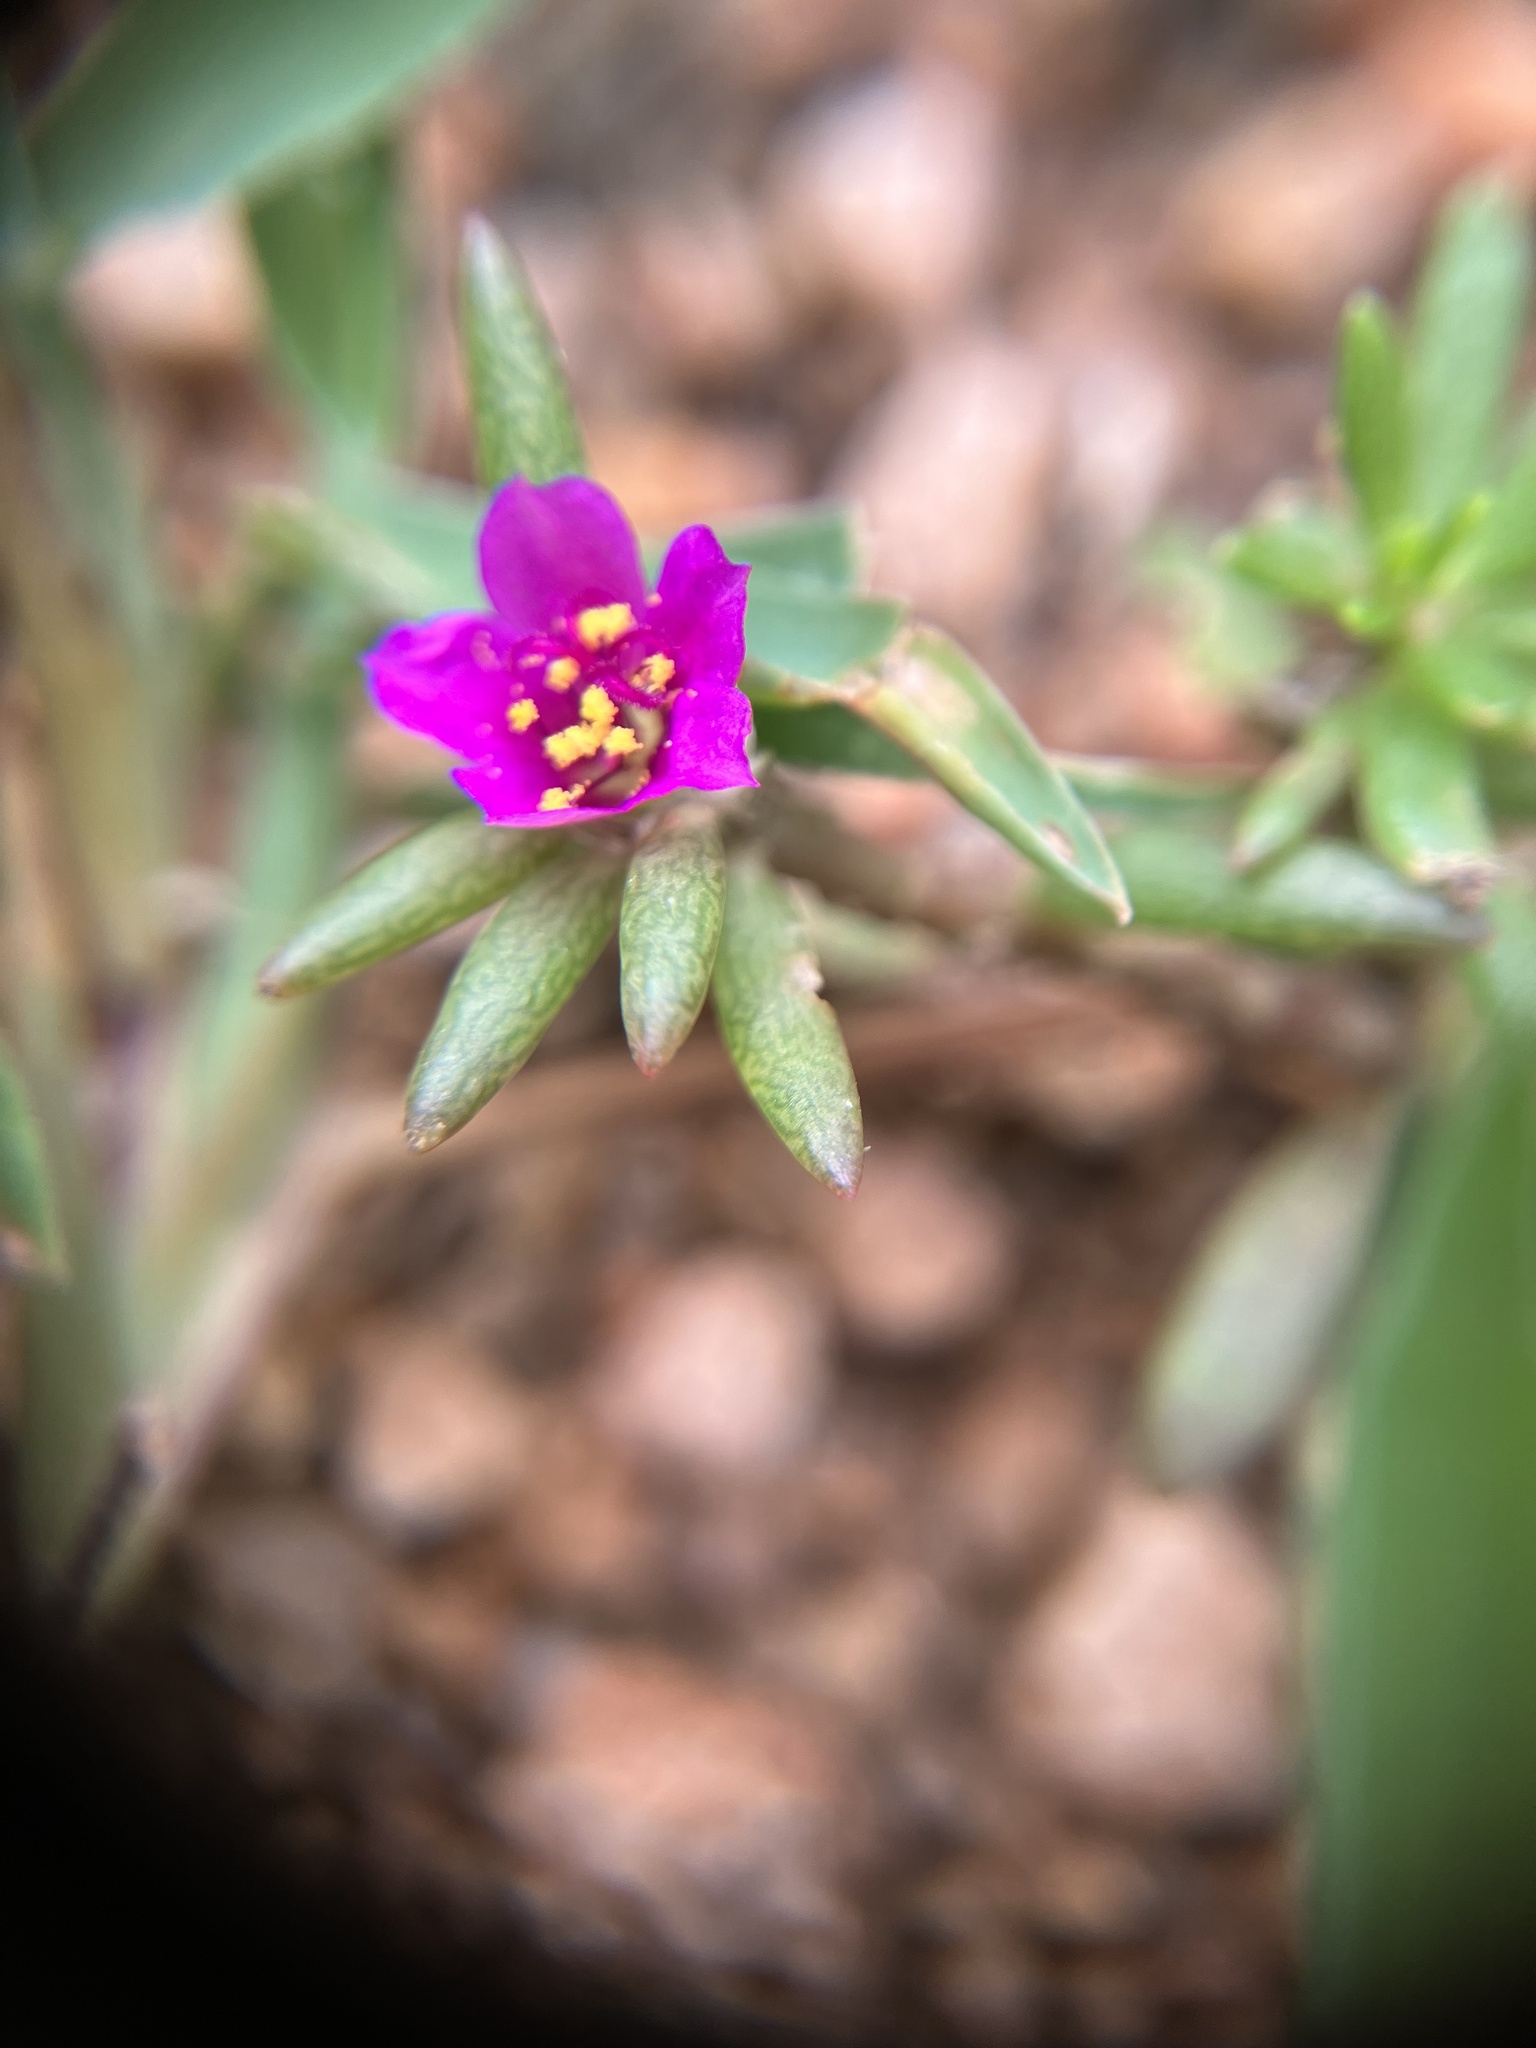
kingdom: Plantae
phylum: Tracheophyta
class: Magnoliopsida
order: Caryophyllales
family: Portulacaceae
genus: Portulaca
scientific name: Portulaca pilosa
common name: Kiss me quick
